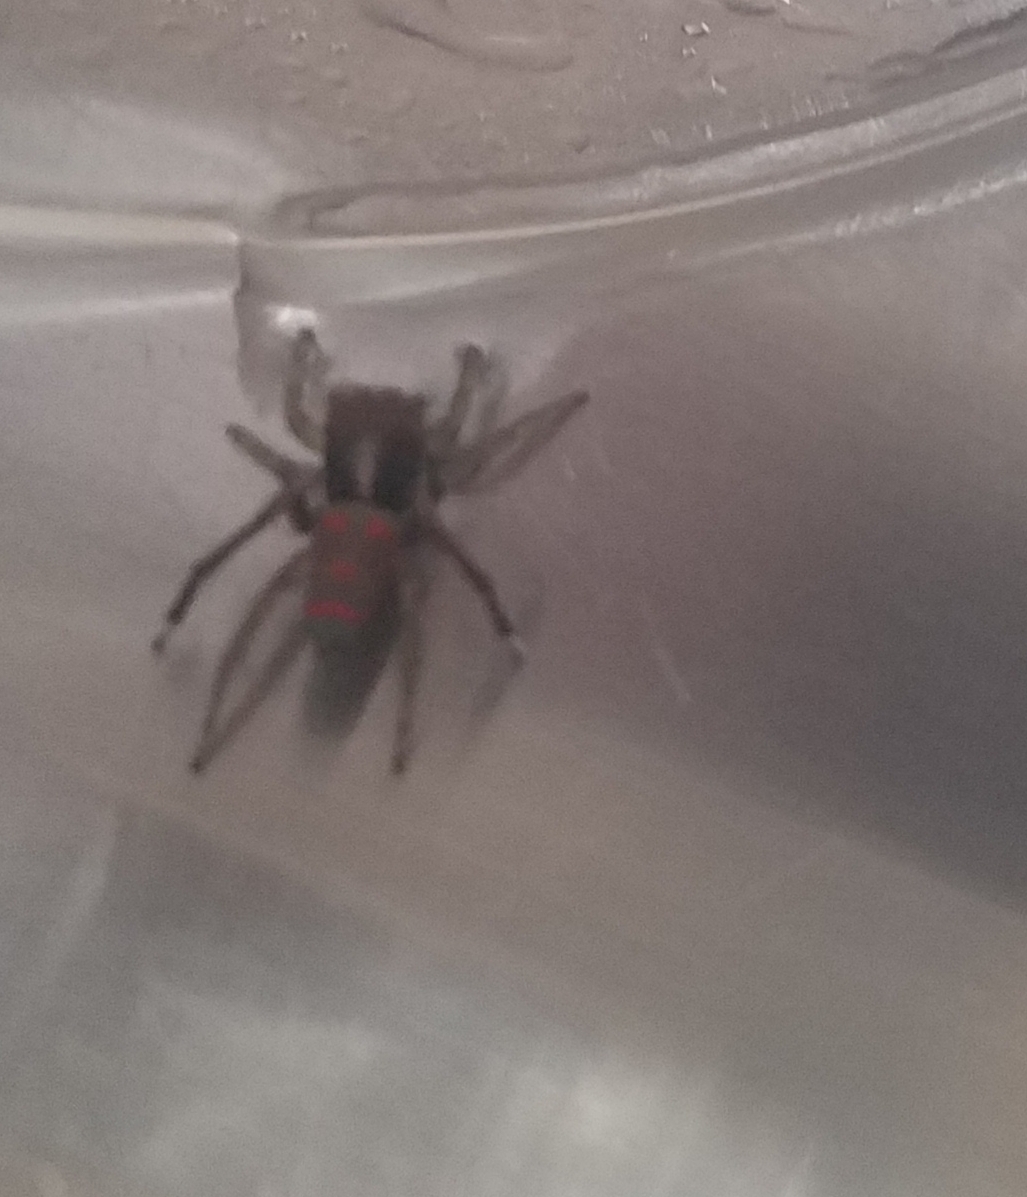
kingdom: Animalia
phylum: Arthropoda
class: Arachnida
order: Araneae
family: Salticidae
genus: Maratus
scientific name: Maratus pavonis
